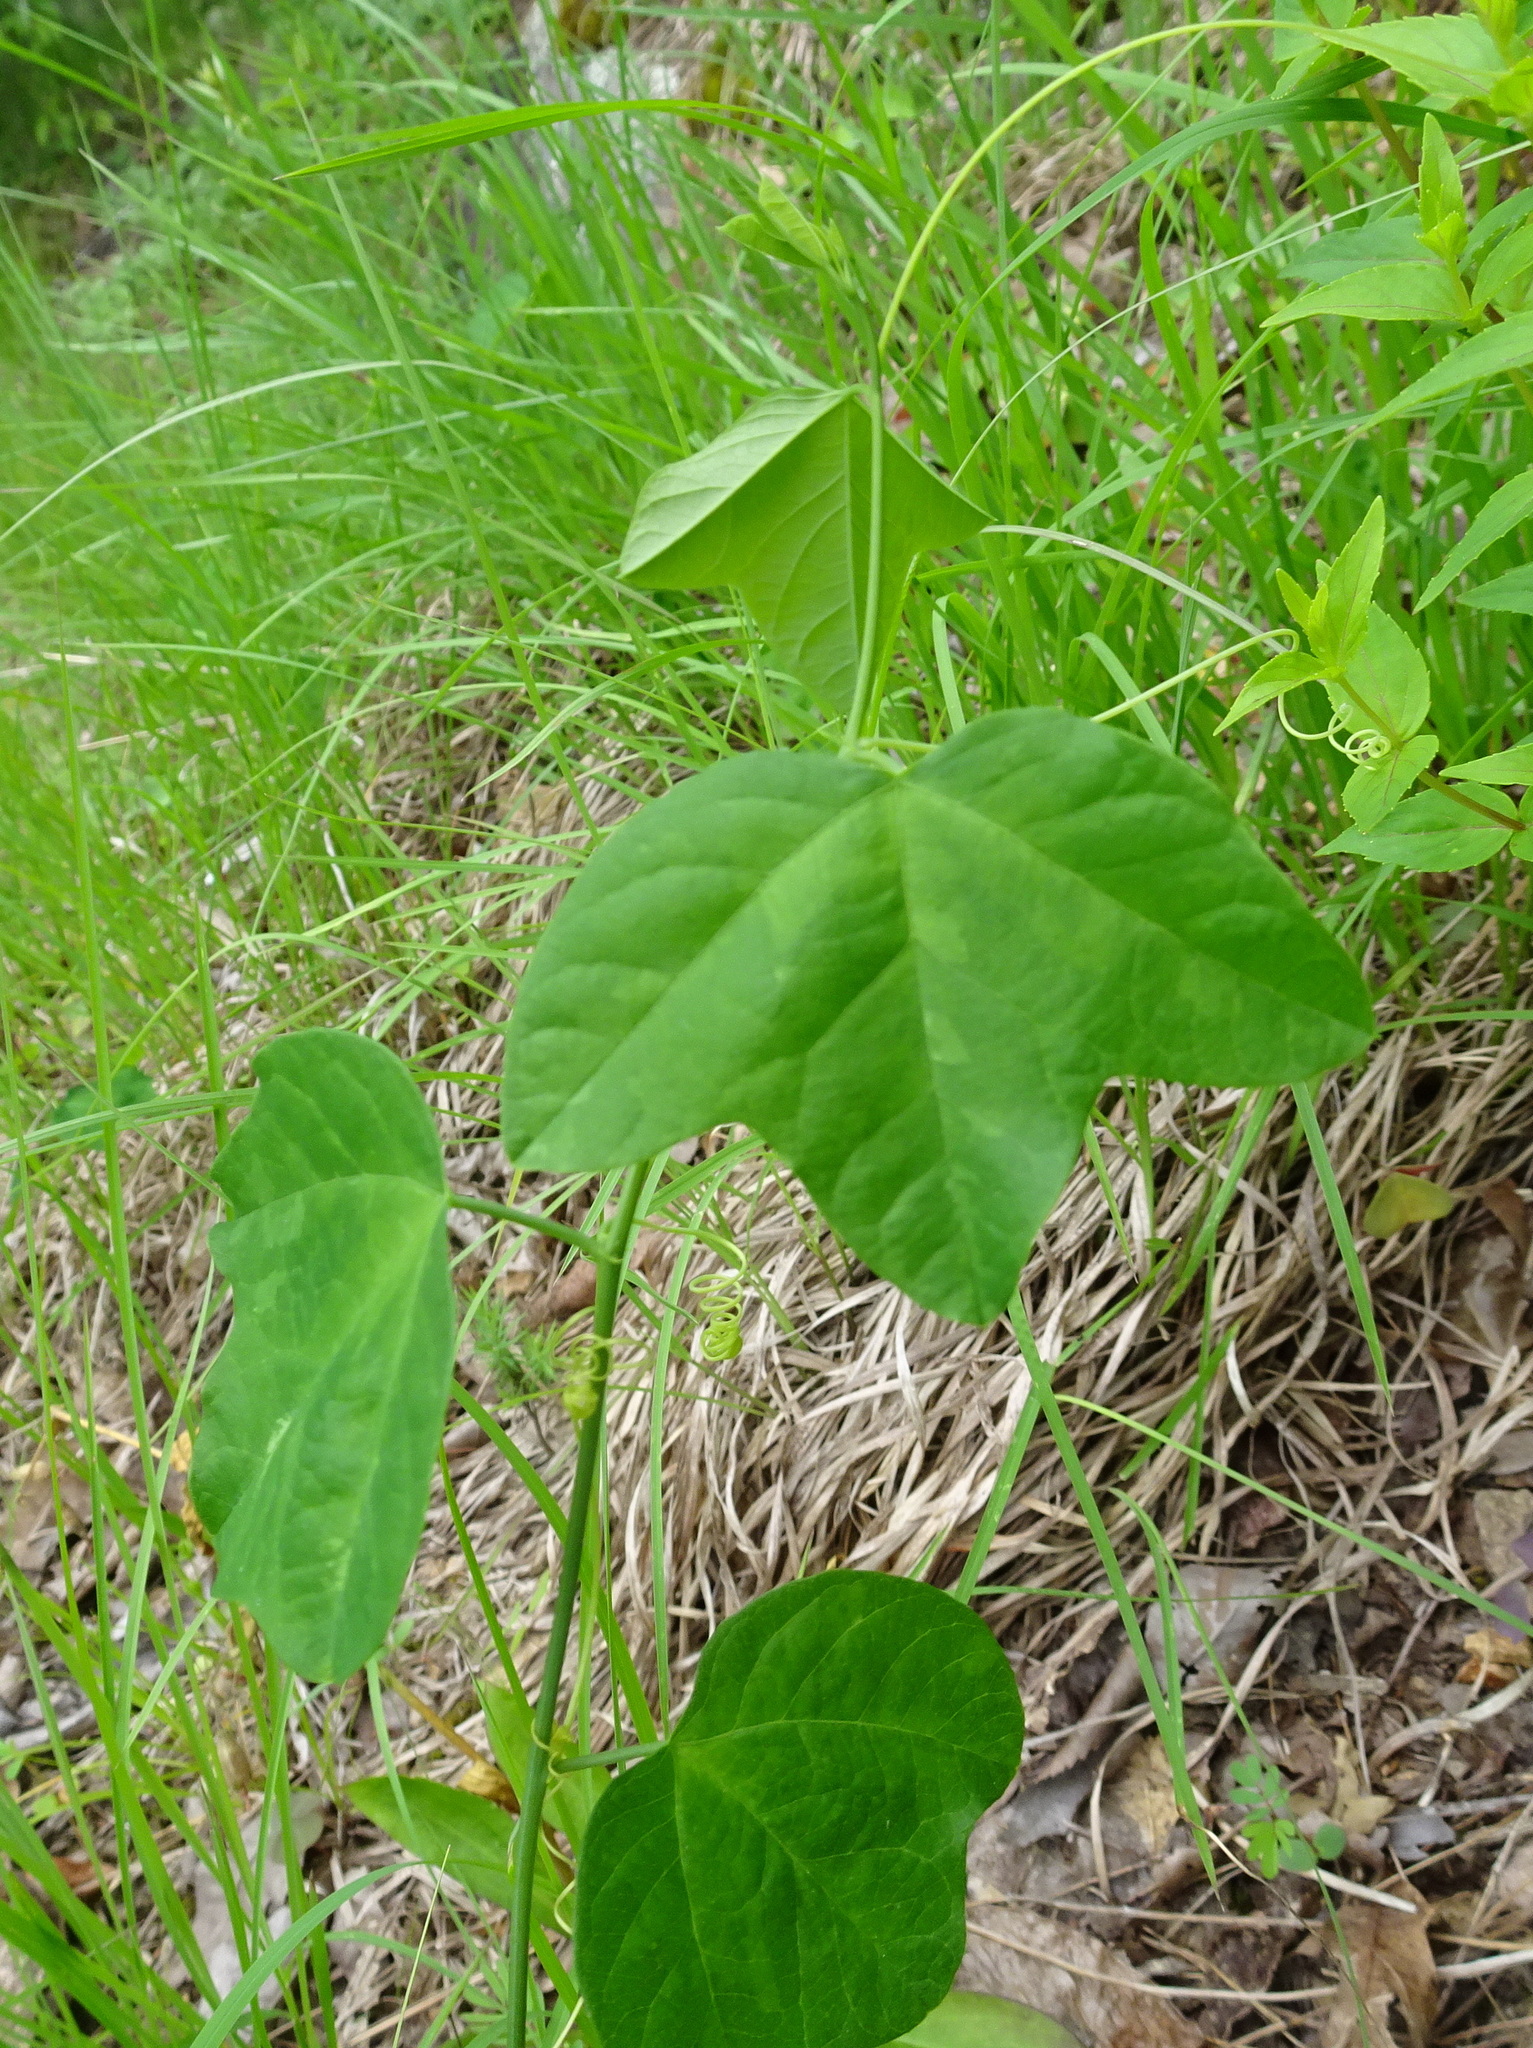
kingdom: Plantae
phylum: Tracheophyta
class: Magnoliopsida
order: Malpighiales
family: Passifloraceae
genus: Passiflora
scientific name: Passiflora lutea
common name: Yellow passionflower
